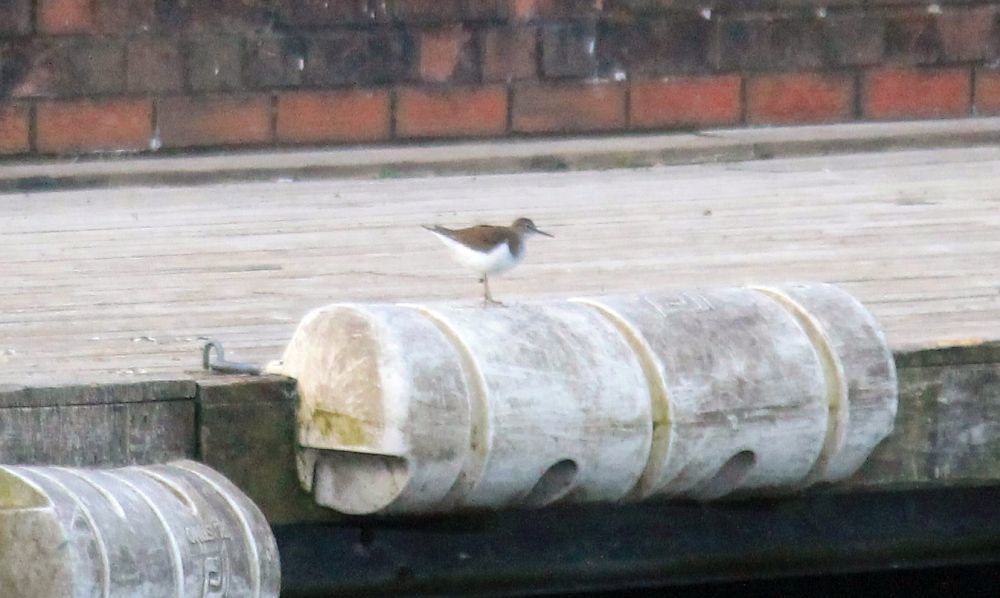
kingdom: Animalia
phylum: Chordata
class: Aves
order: Charadriiformes
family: Scolopacidae
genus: Actitis
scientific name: Actitis hypoleucos
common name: Common sandpiper
